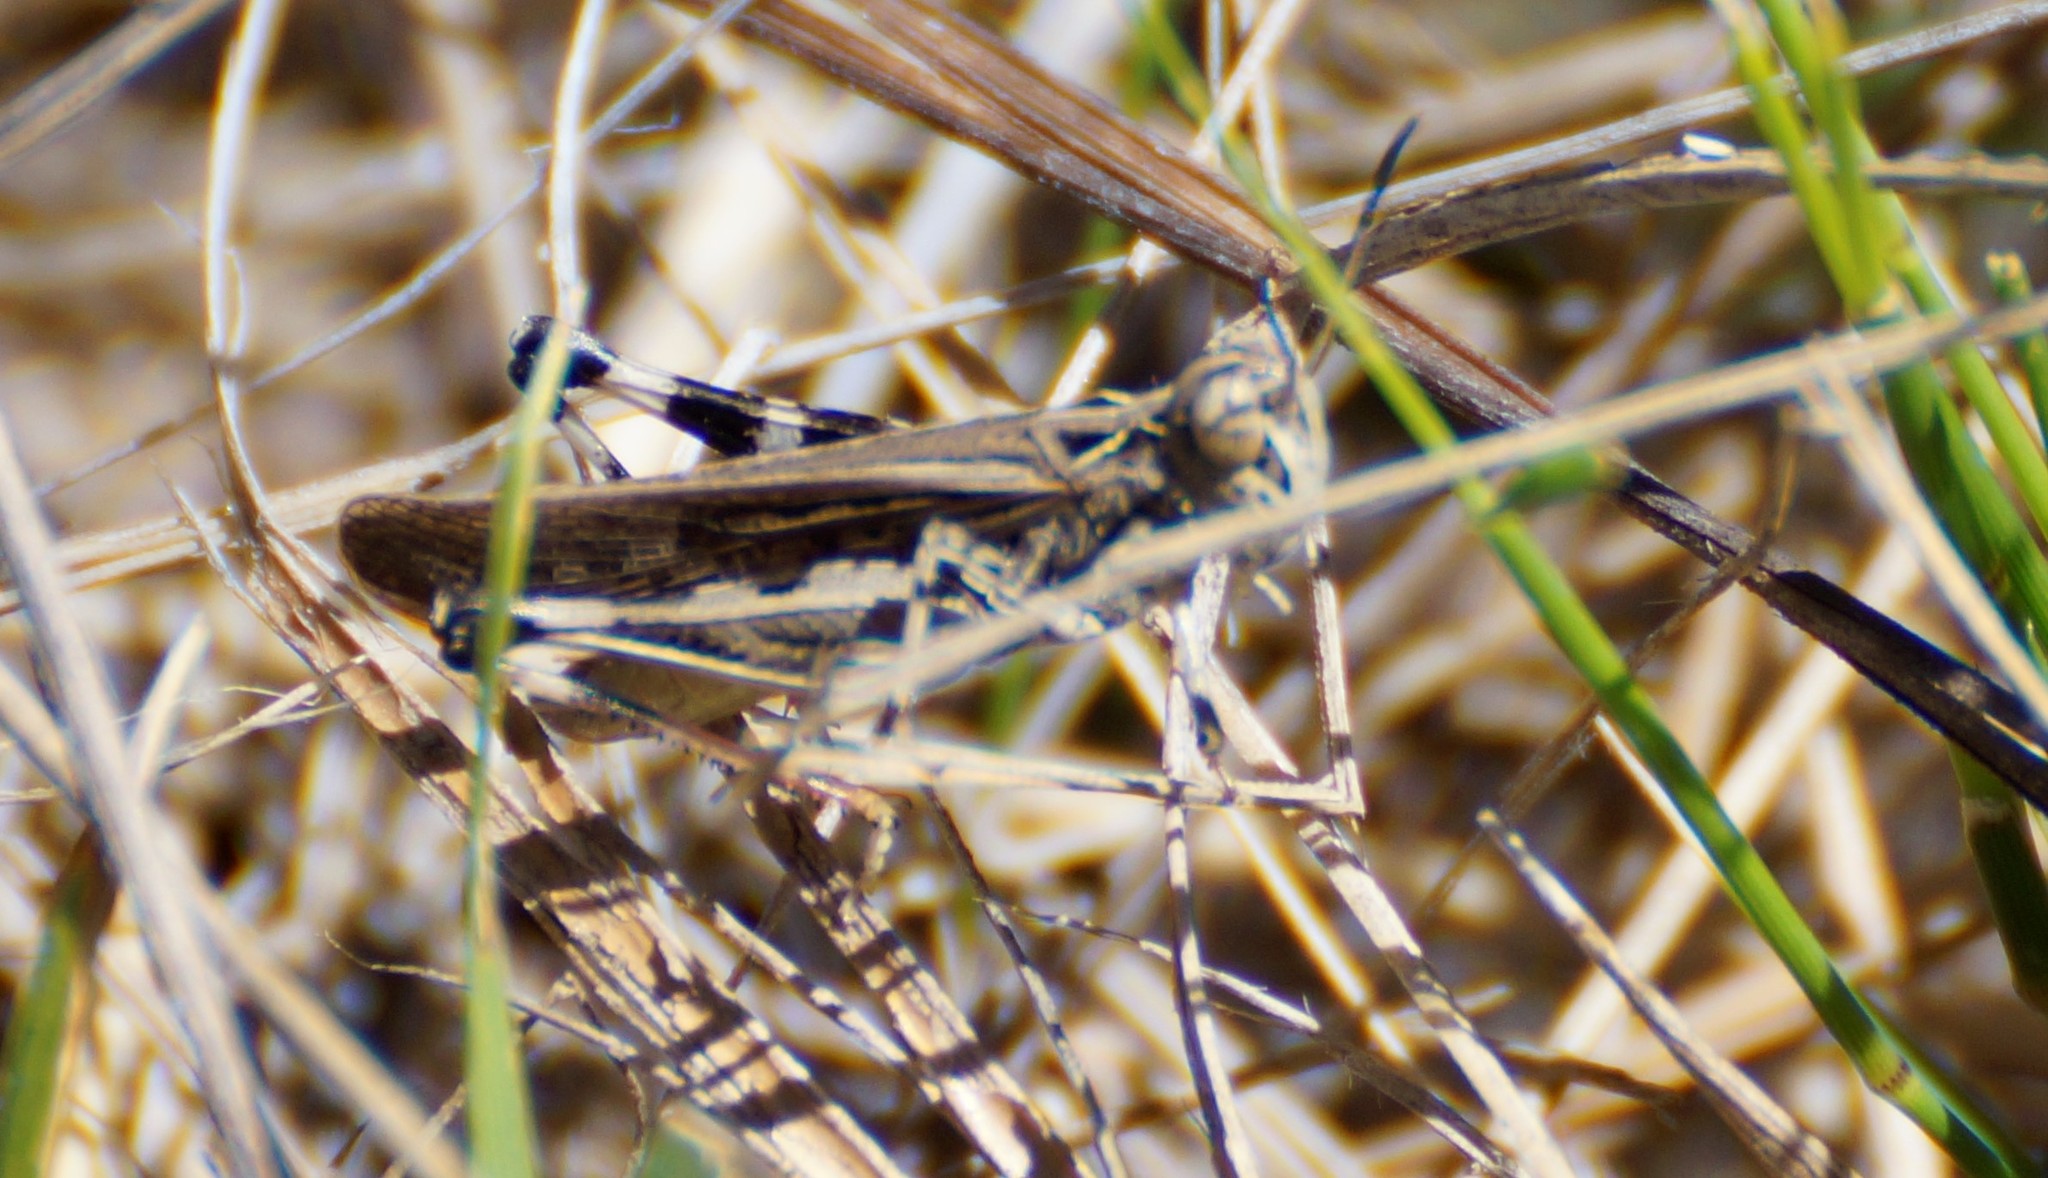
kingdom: Animalia
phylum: Arthropoda
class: Insecta
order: Orthoptera
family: Acrididae
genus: Austroicetes
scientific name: Austroicetes vulgaris
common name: Southeastern austroicetes
